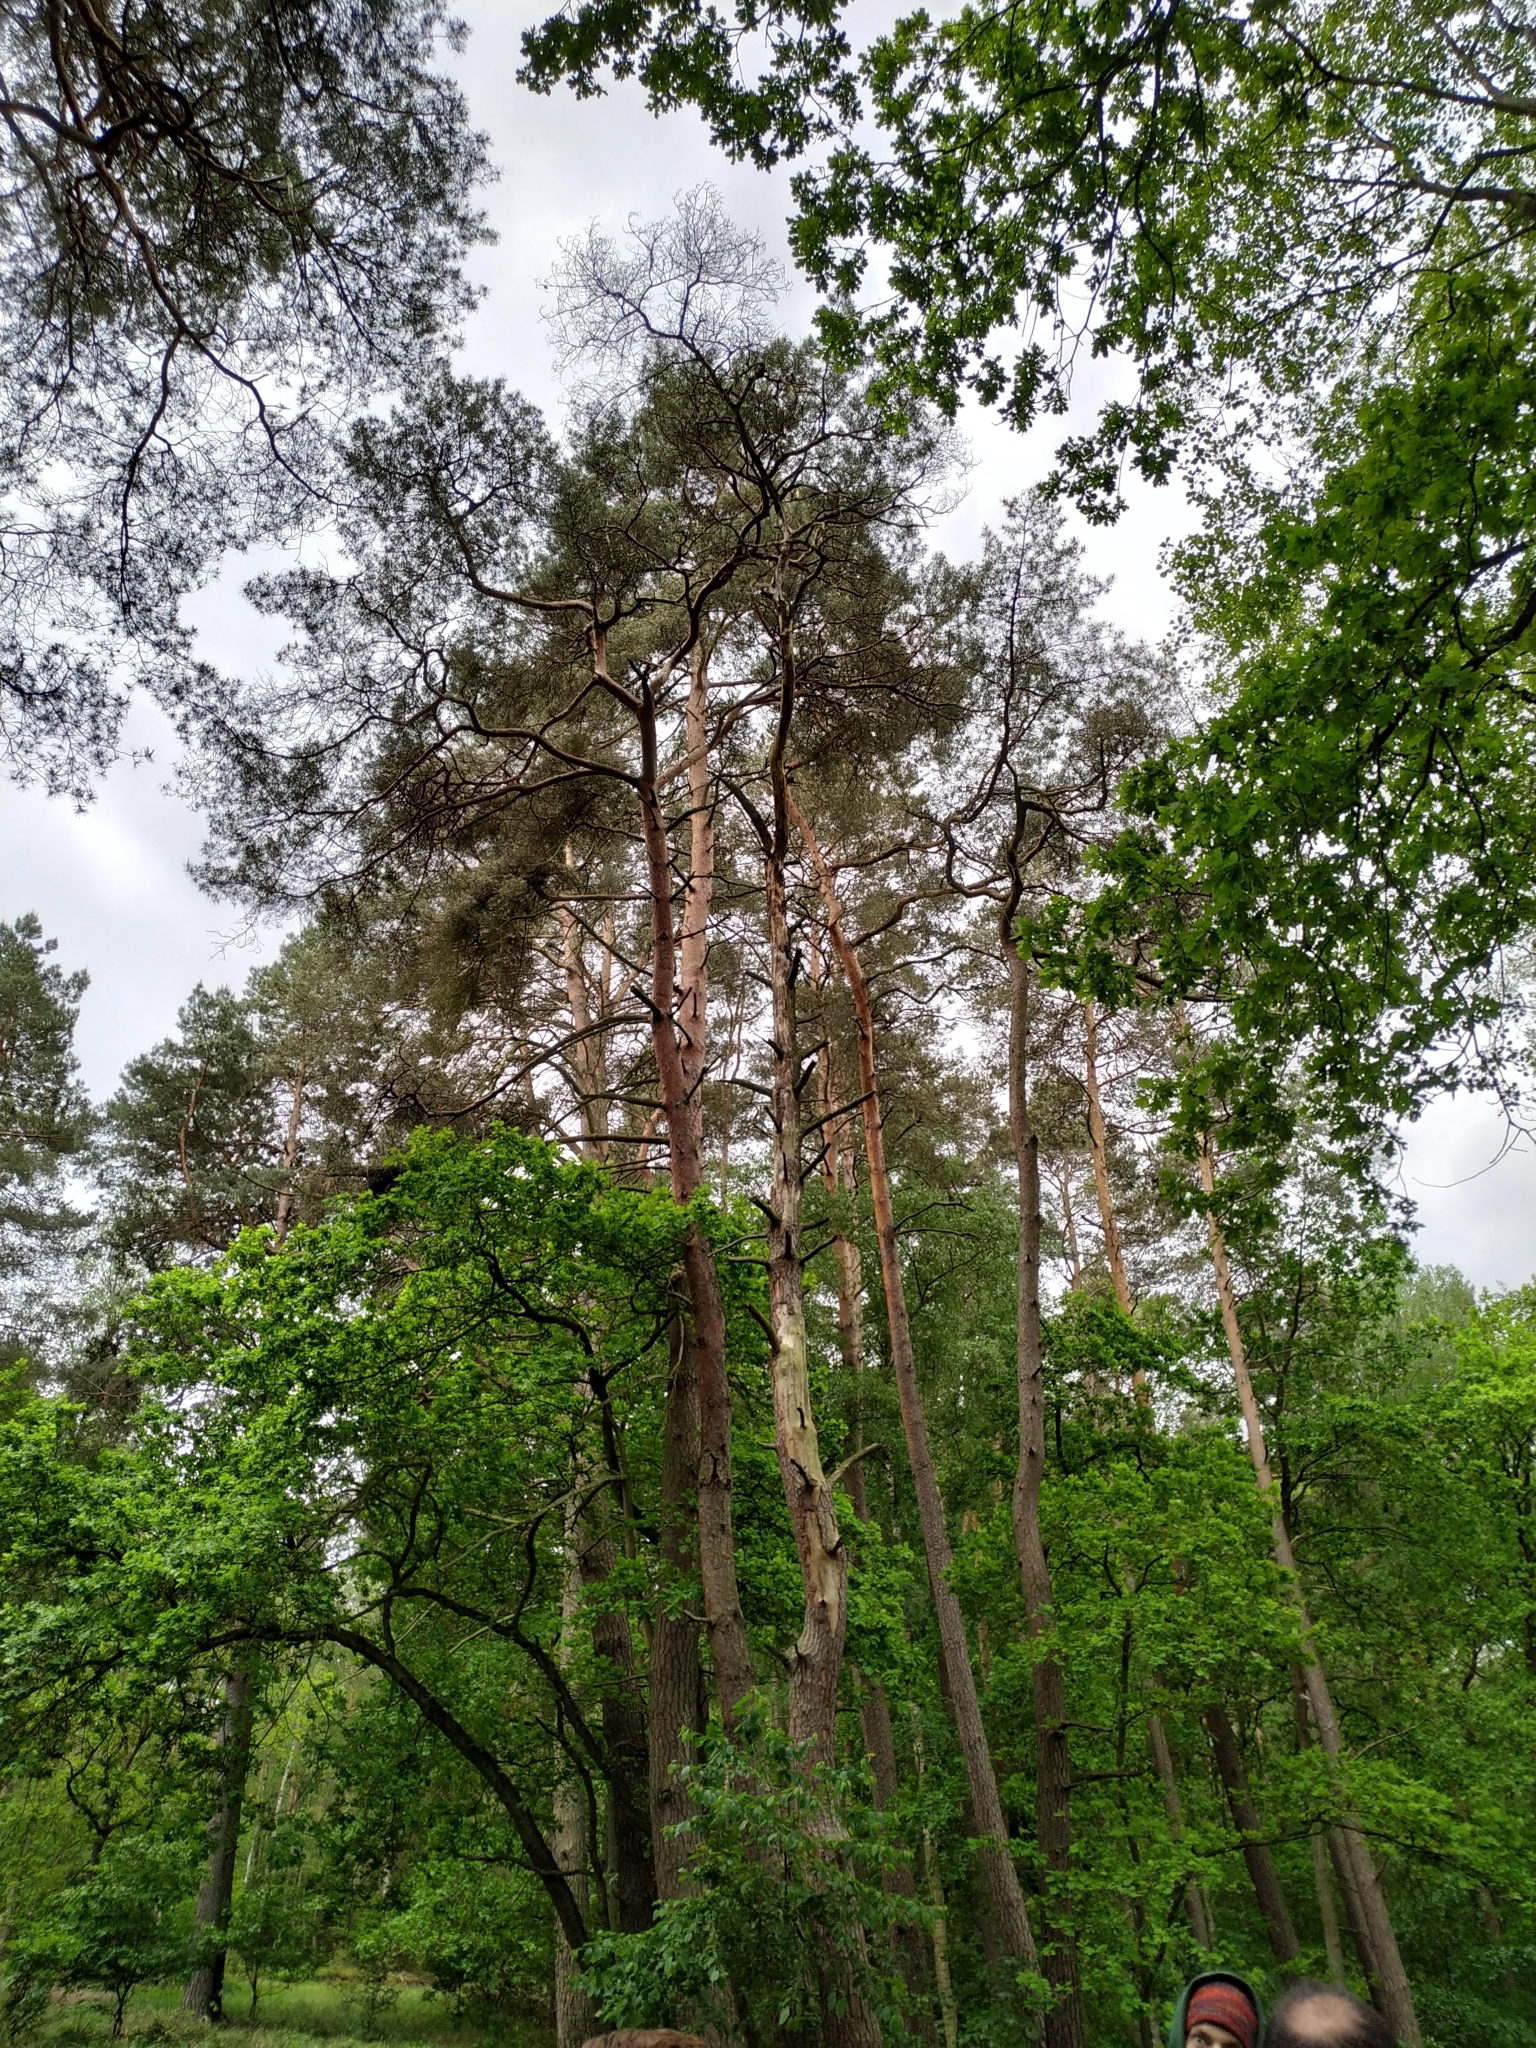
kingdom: Plantae
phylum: Tracheophyta
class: Pinopsida
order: Pinales
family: Pinaceae
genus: Pinus
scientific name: Pinus sylvestris
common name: Scots pine
